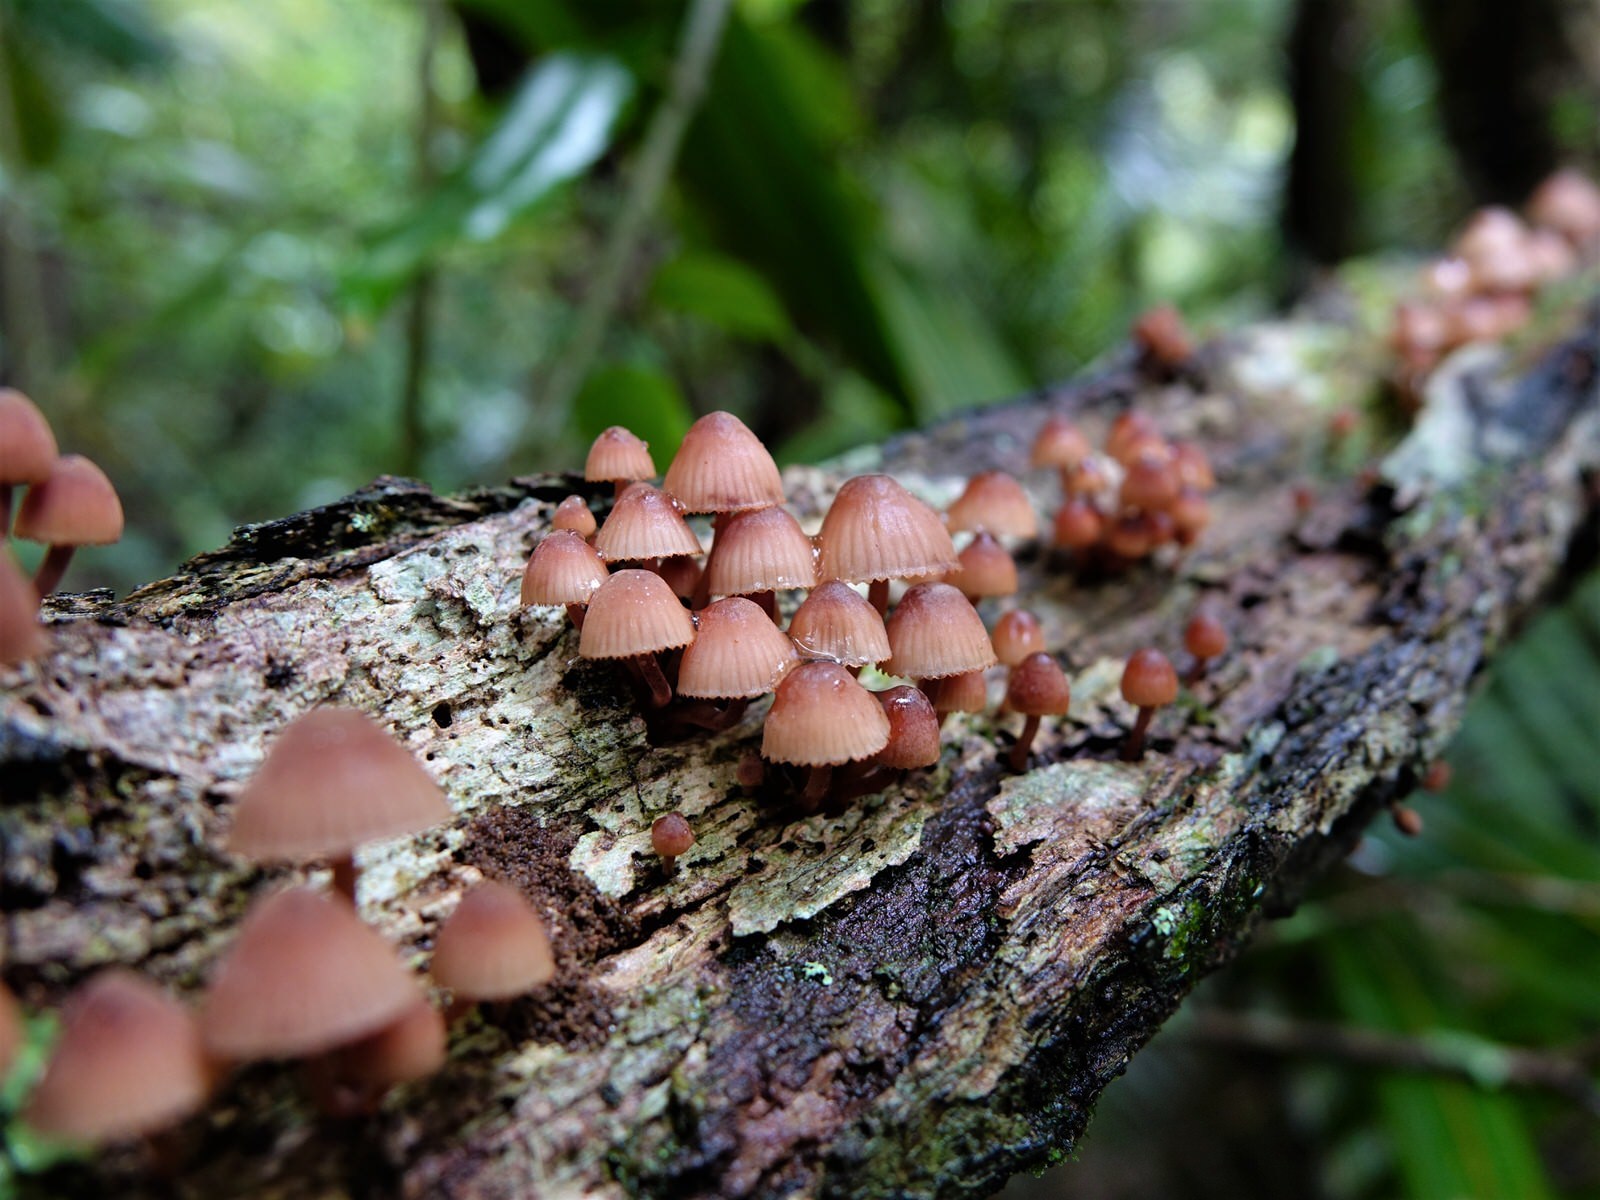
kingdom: Fungi
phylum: Basidiomycota
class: Agaricomycetes
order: Agaricales
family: Mycenaceae
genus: Mycena
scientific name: Mycena mariae
